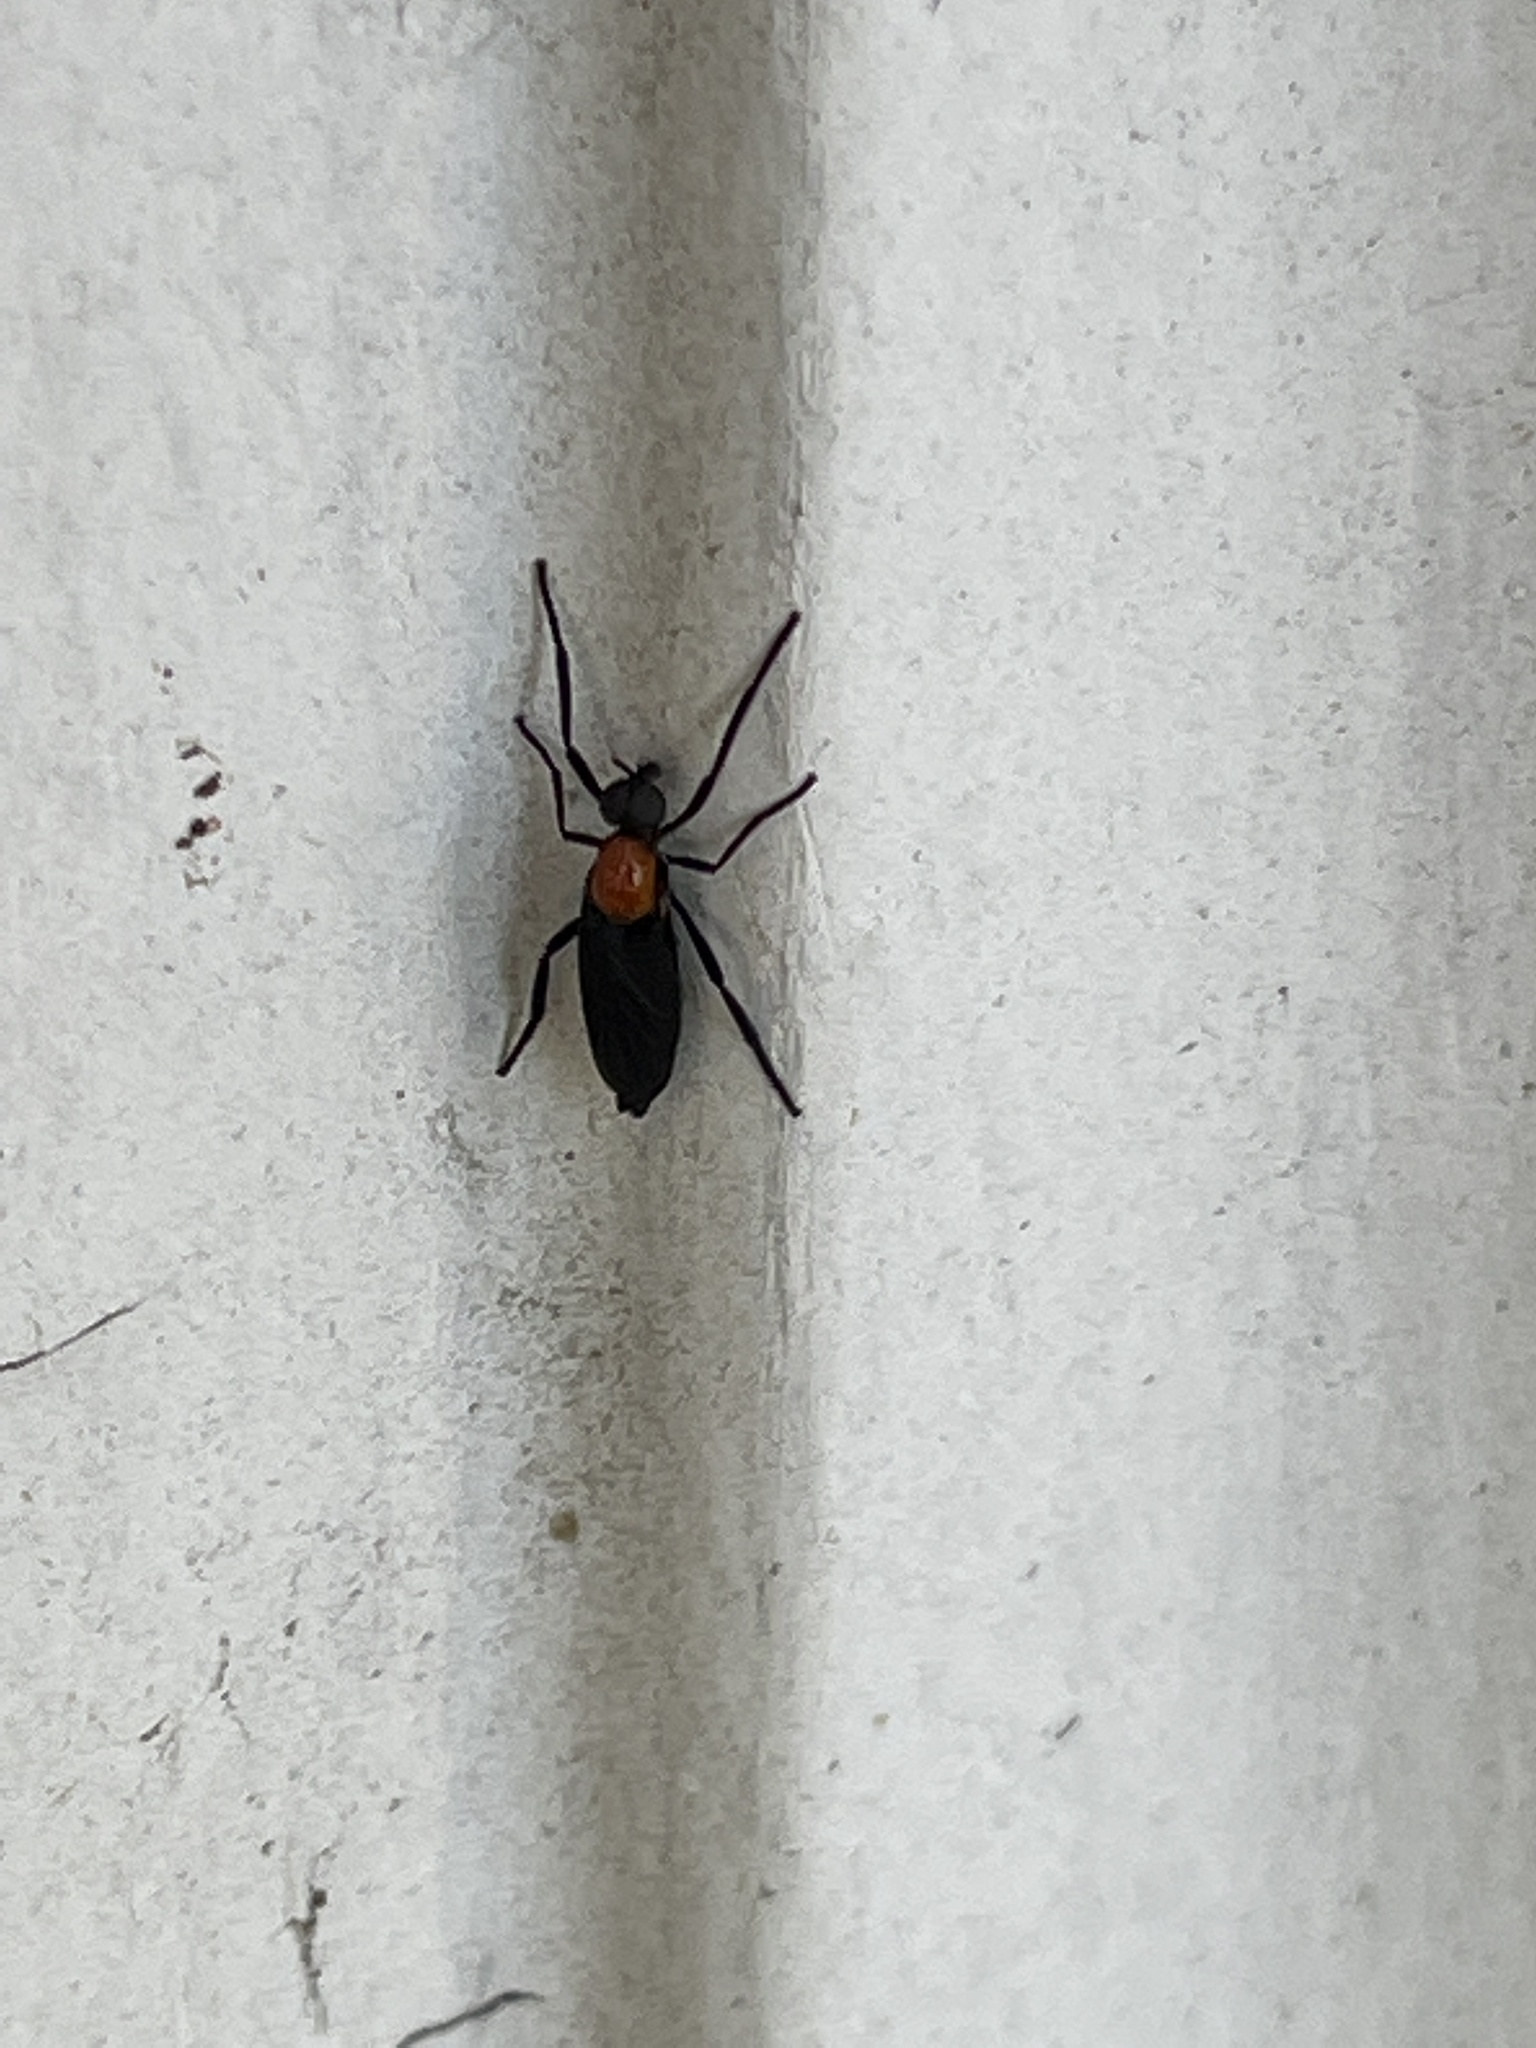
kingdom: Animalia
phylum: Arthropoda
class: Insecta
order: Diptera
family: Bibionidae
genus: Plecia
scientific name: Plecia nearctica
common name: March fly
